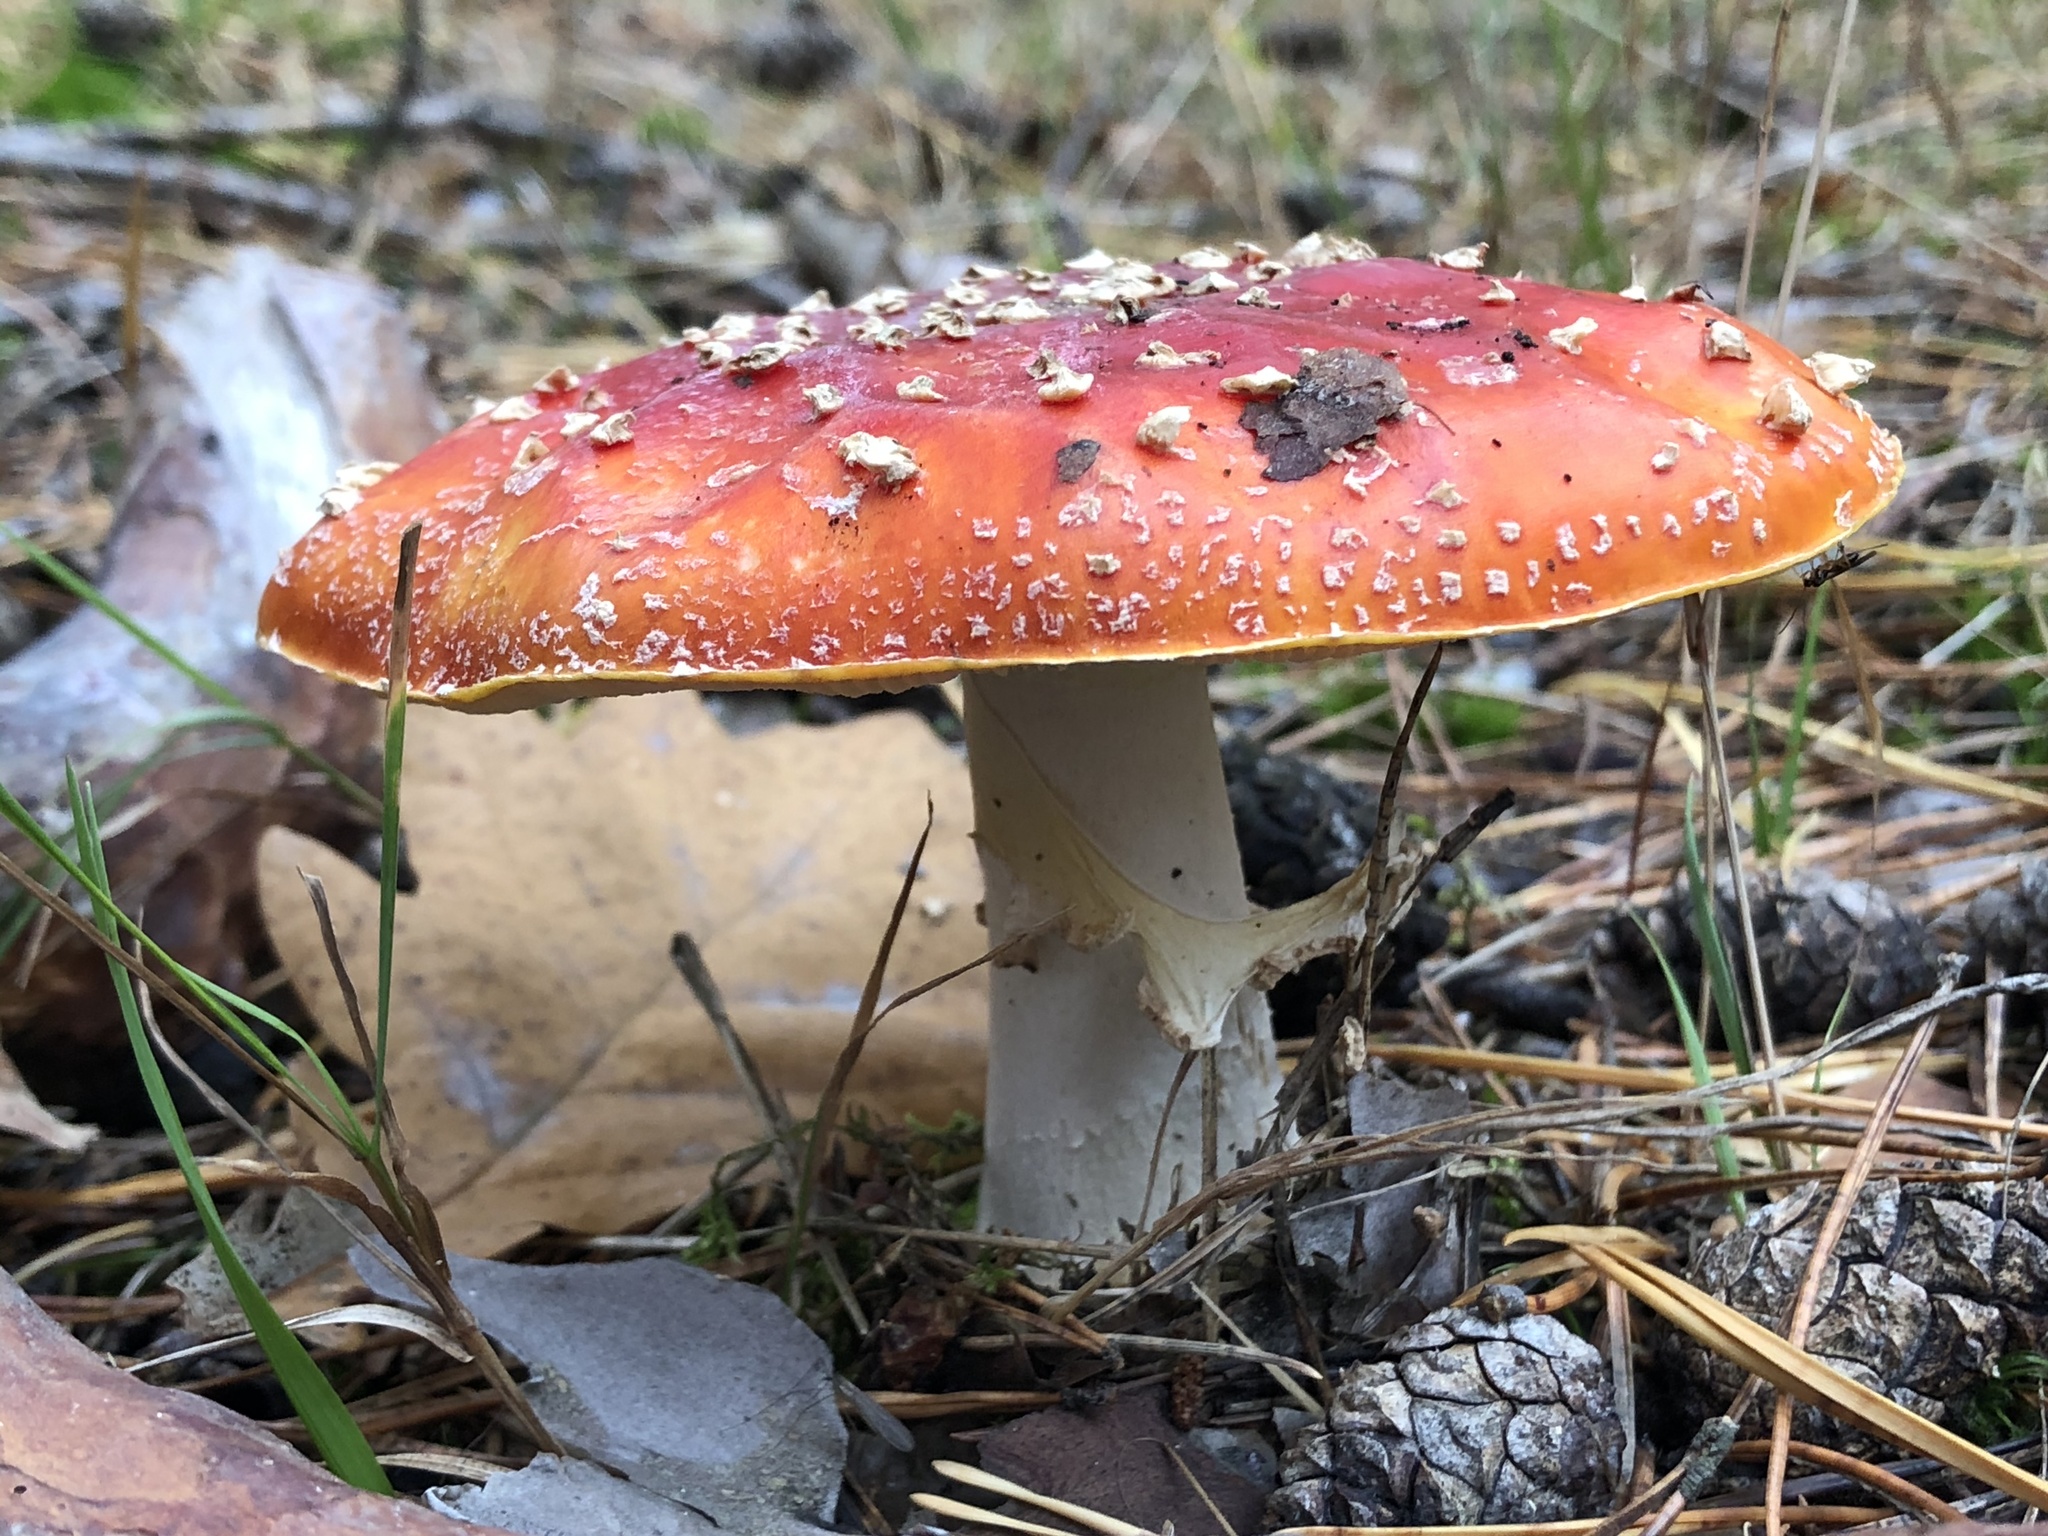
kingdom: Fungi
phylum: Basidiomycota
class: Agaricomycetes
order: Agaricales
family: Amanitaceae
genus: Amanita
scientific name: Amanita muscaria
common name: Fly agaric
